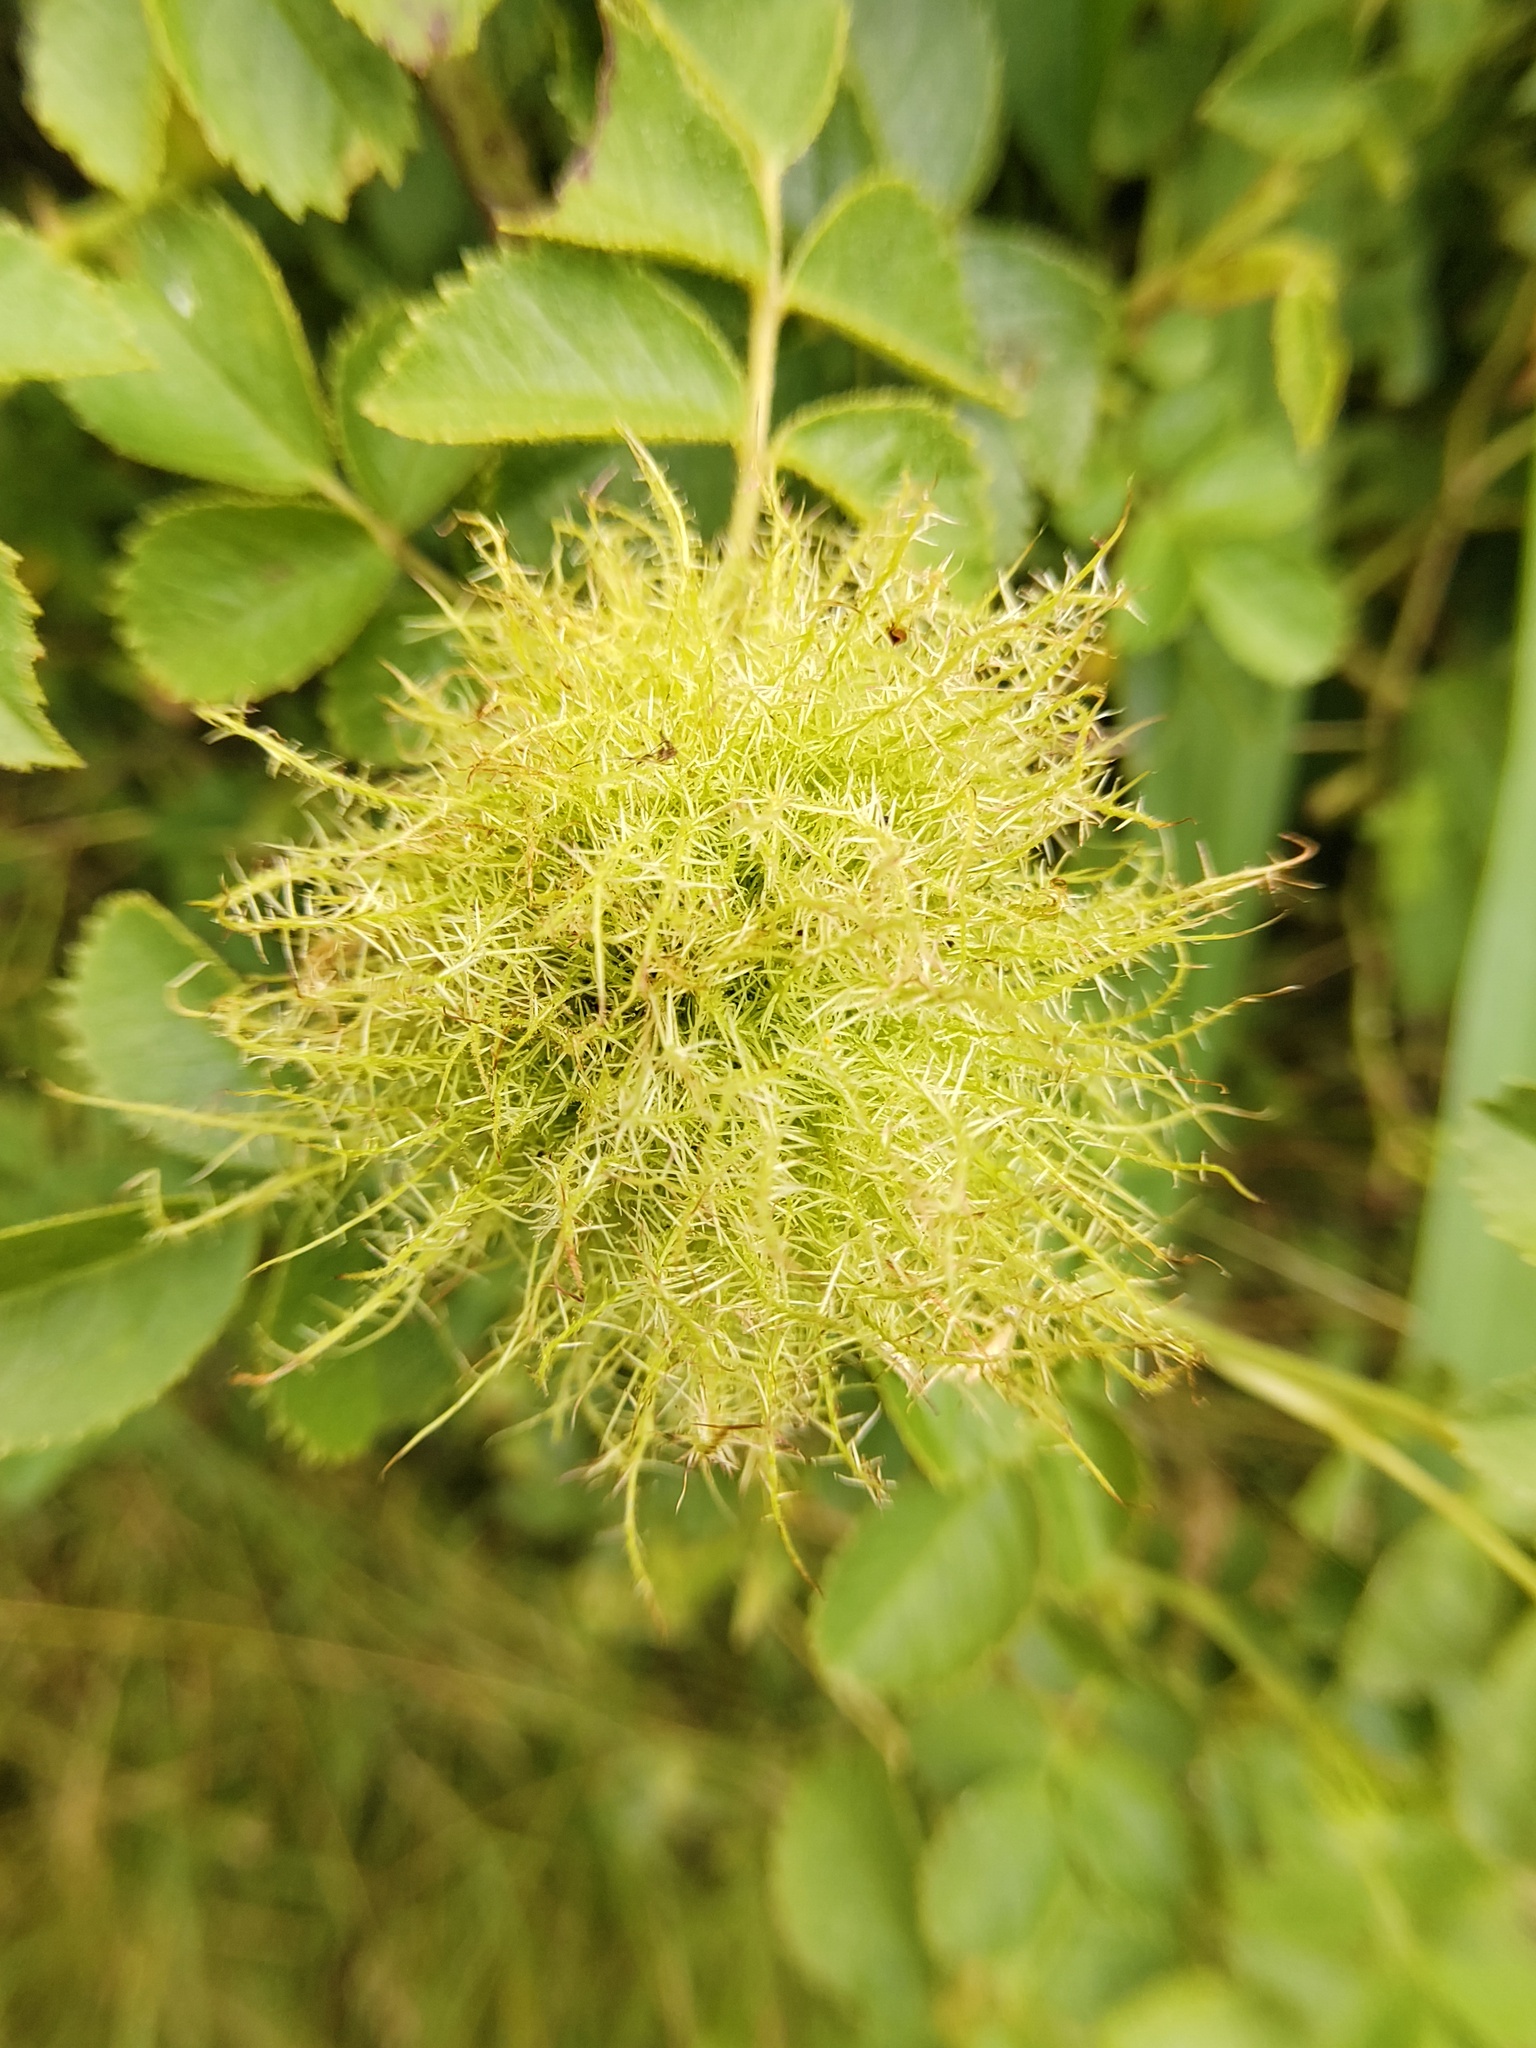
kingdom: Animalia
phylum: Arthropoda
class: Insecta
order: Hymenoptera
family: Cynipidae
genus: Diplolepis
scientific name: Diplolepis rosae
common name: Bedeguar gall
